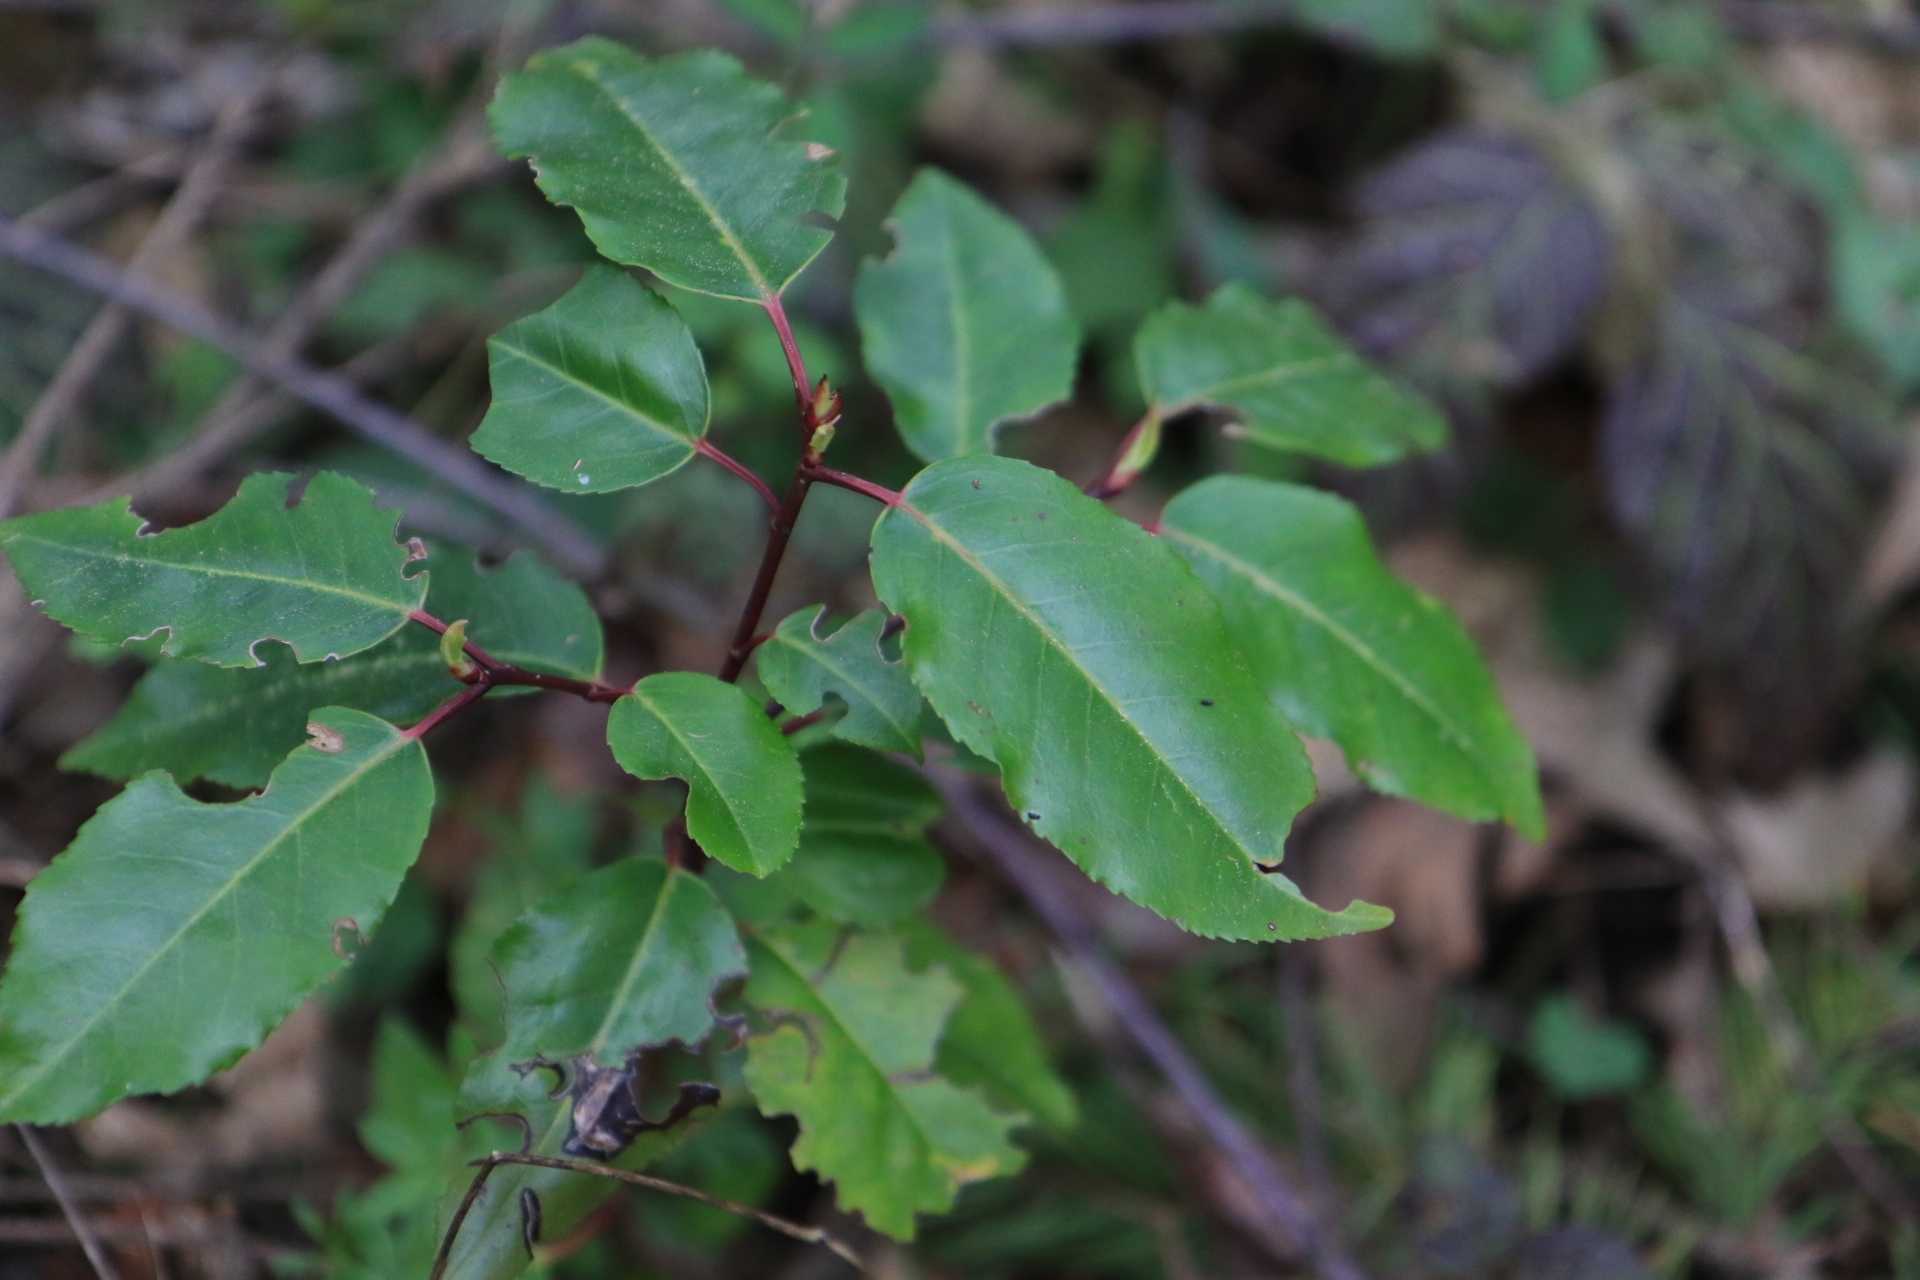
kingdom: Plantae
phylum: Tracheophyta
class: Magnoliopsida
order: Rosales
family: Rosaceae
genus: Prunus
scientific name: Prunus lusitanica
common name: Portugal laurel
